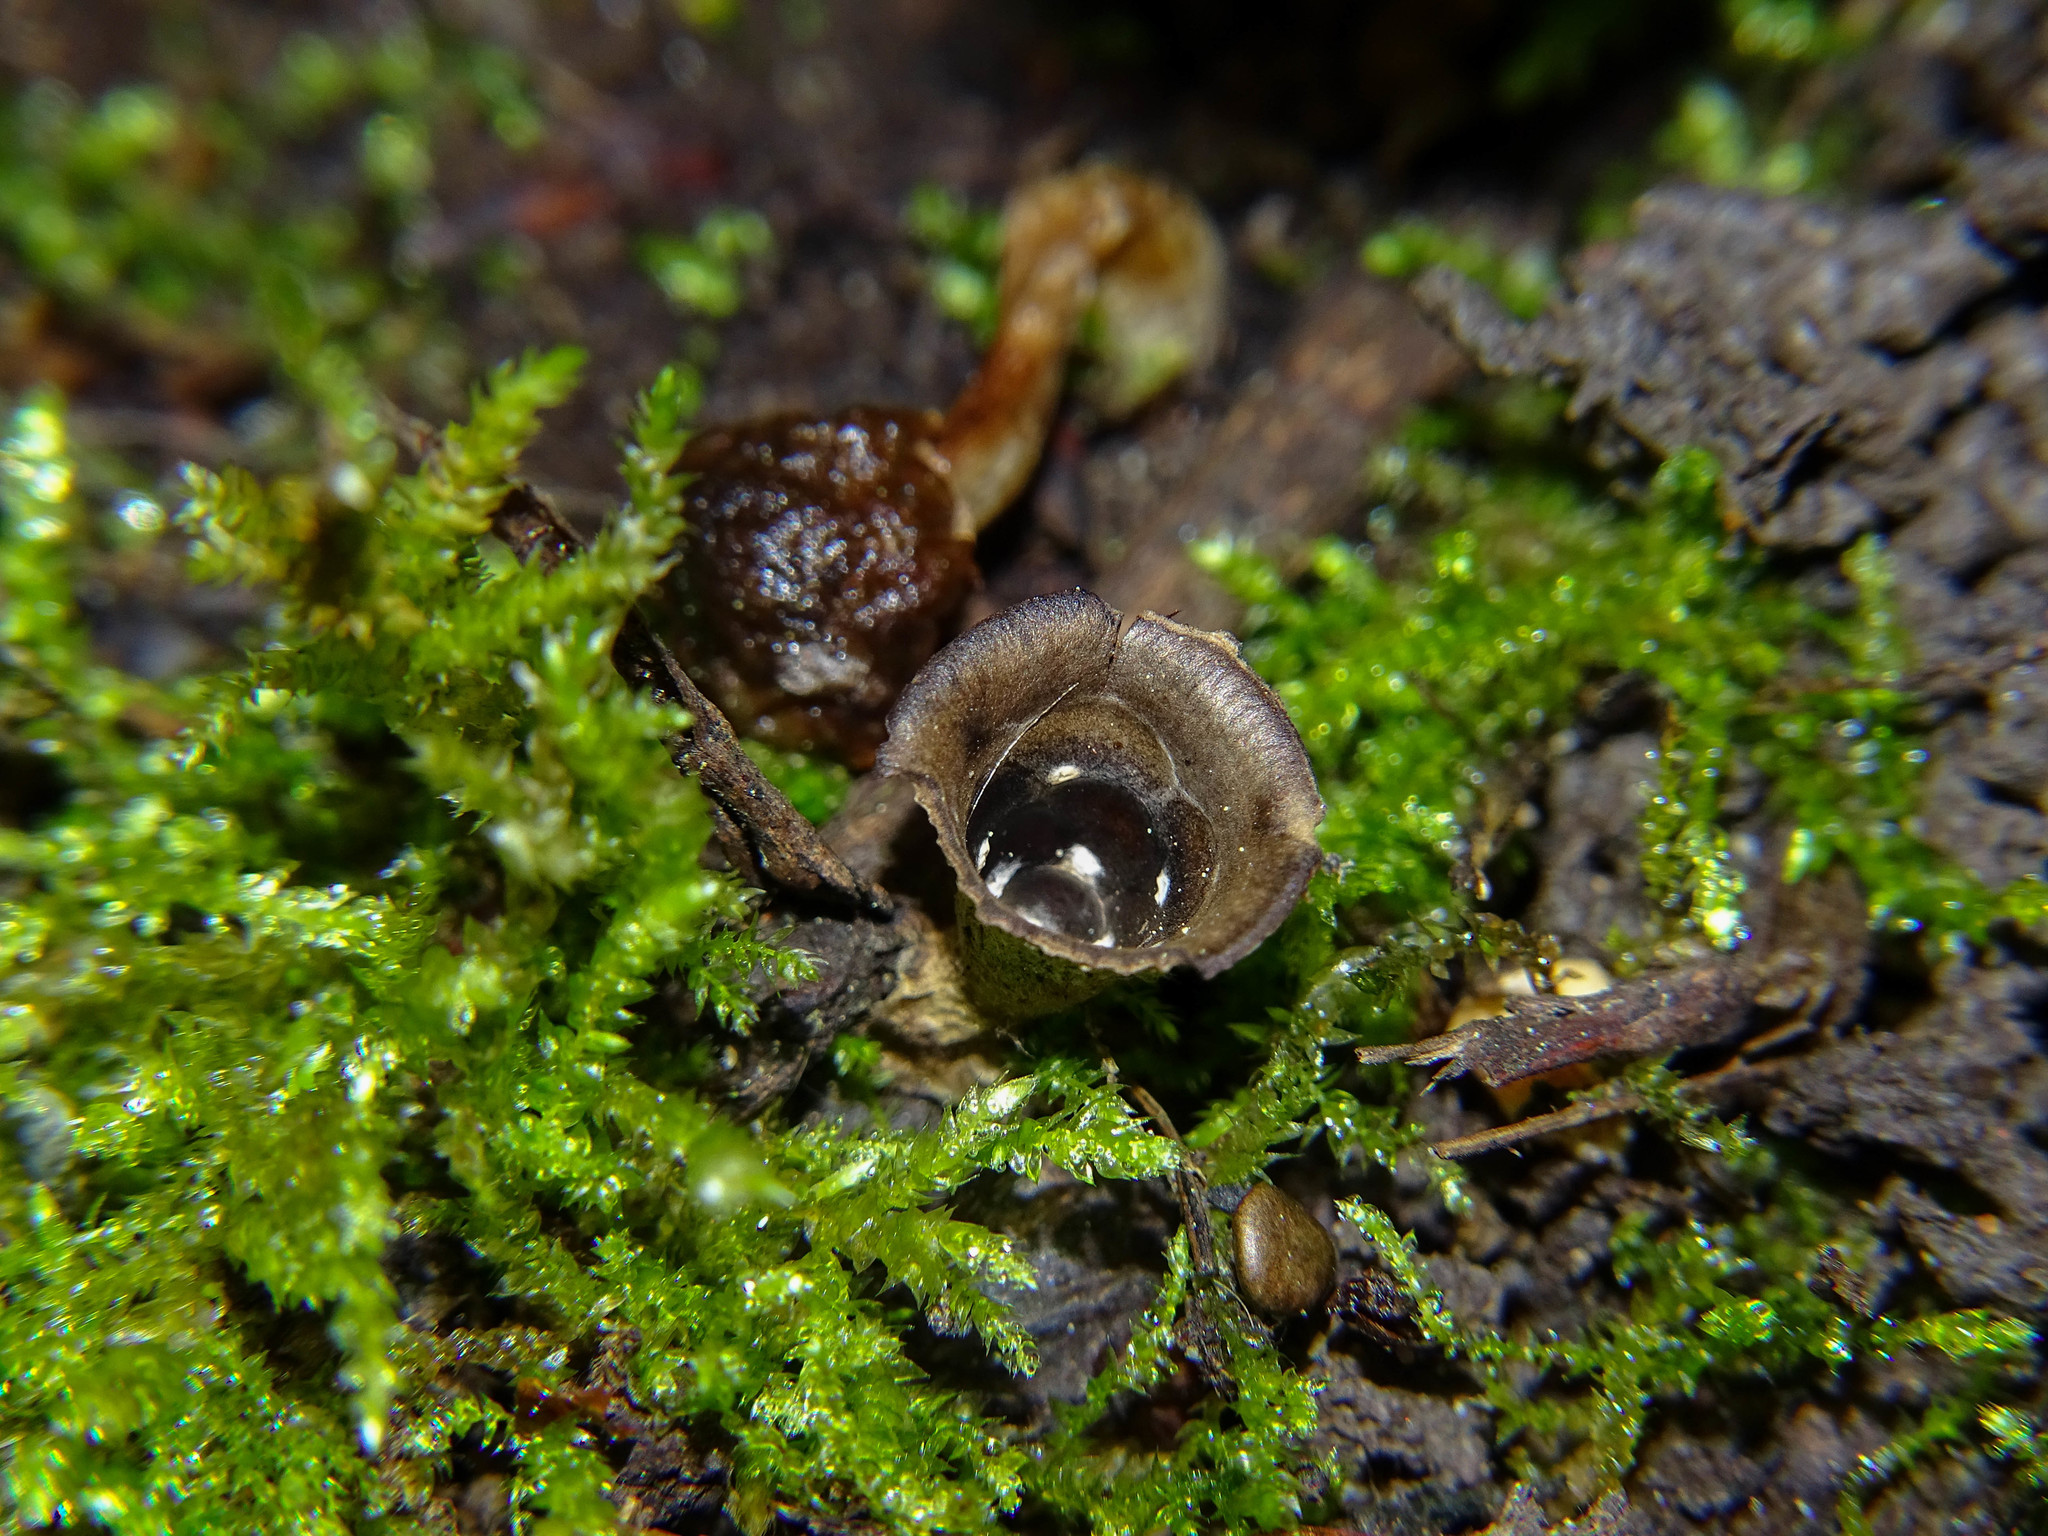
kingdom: Fungi
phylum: Basidiomycota
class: Agaricomycetes
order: Agaricales
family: Agaricaceae
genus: Cyathus
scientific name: Cyathus olla
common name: Field bird's nest
